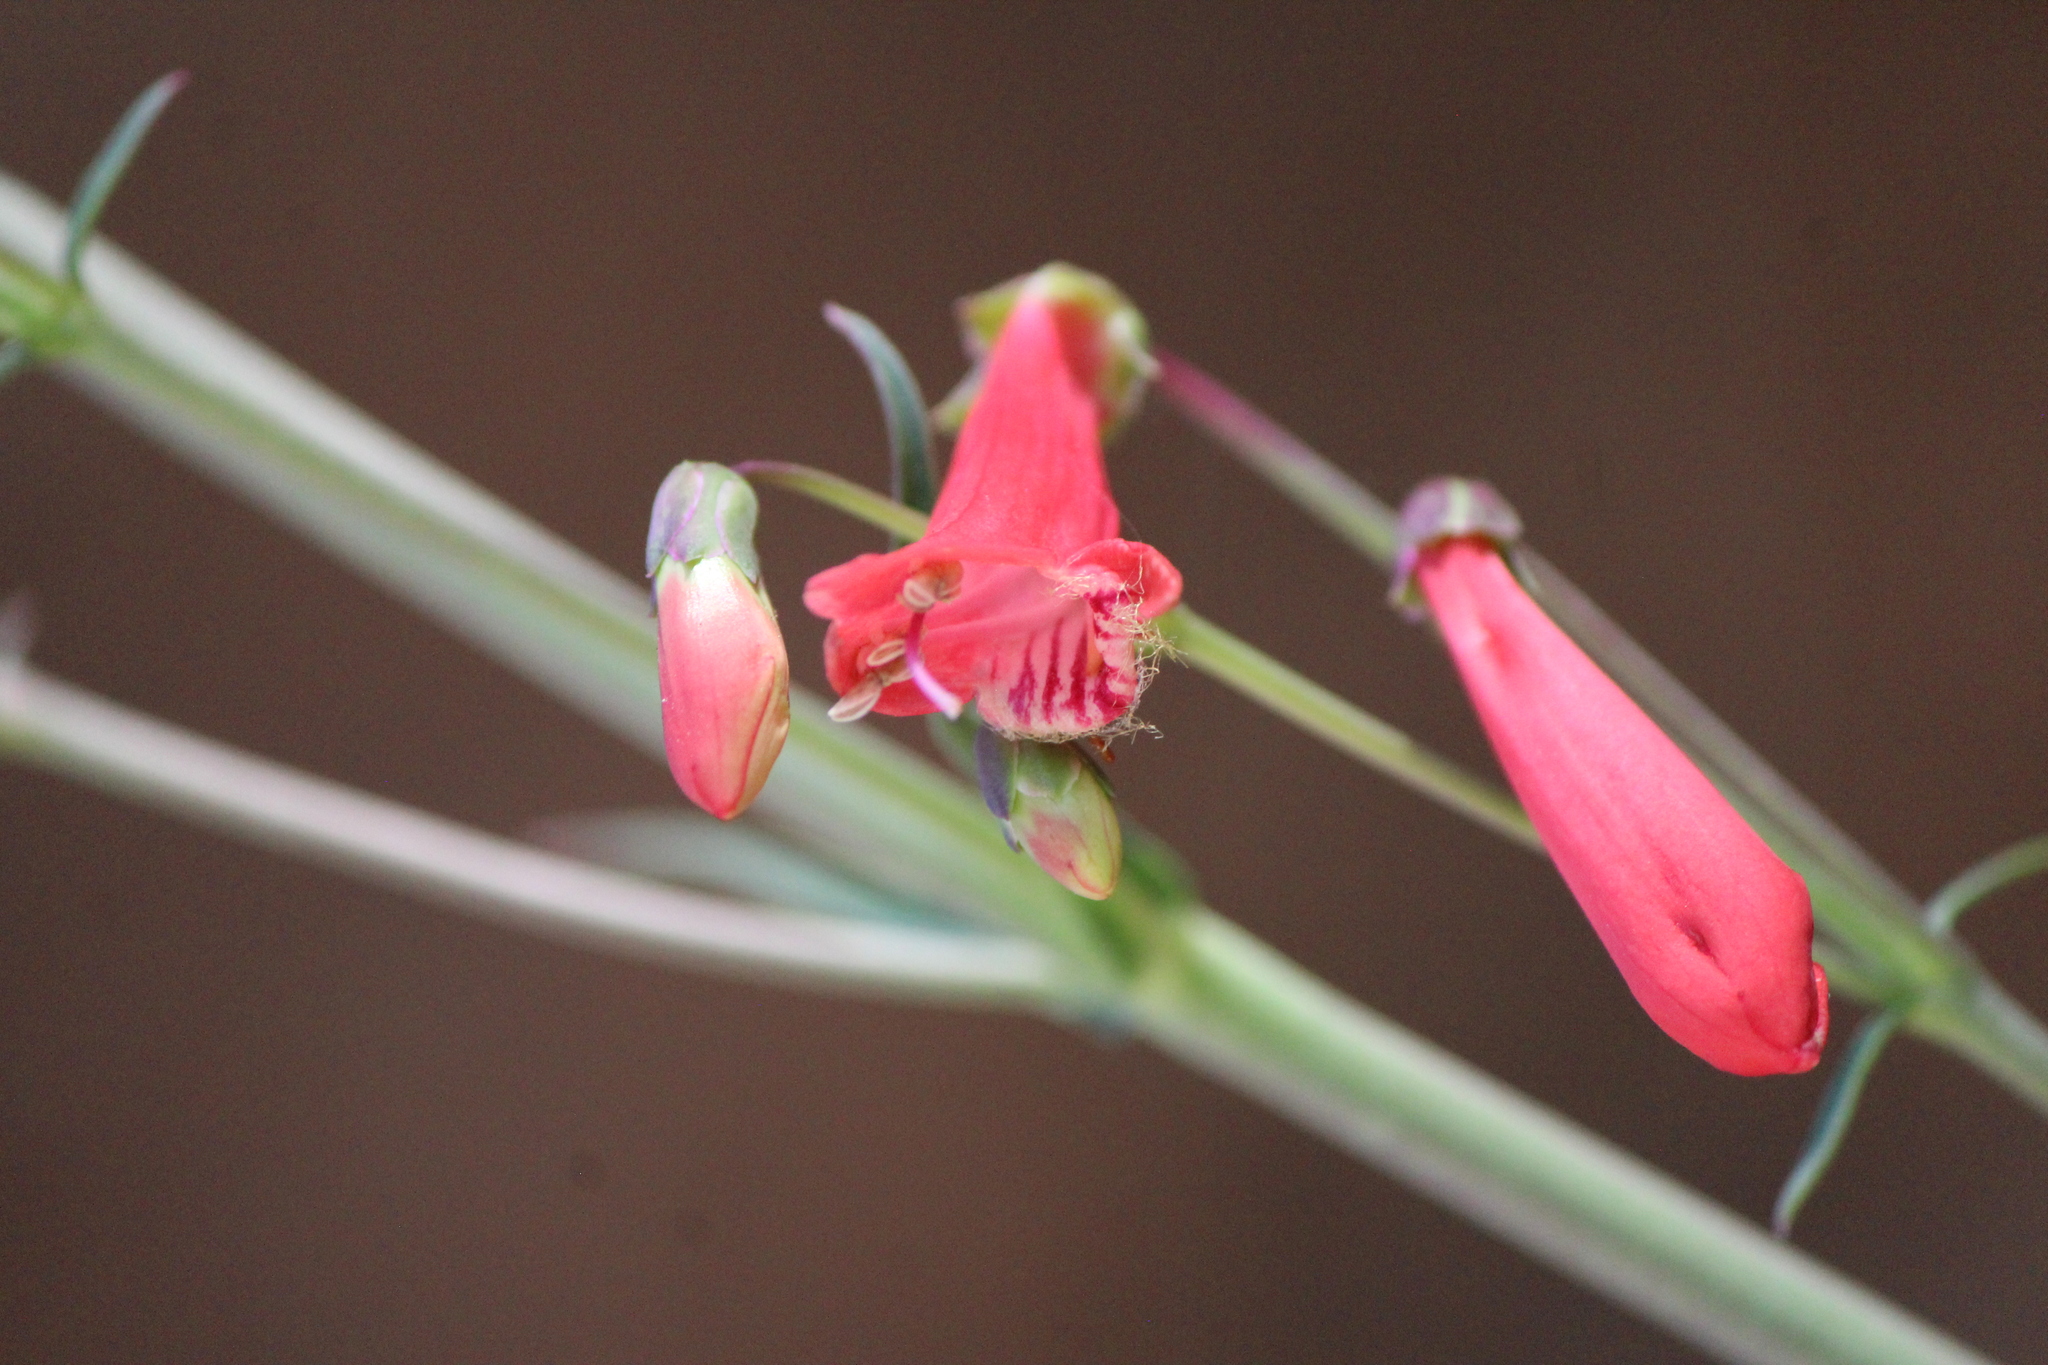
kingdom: Plantae
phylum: Tracheophyta
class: Magnoliopsida
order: Lamiales
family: Plantaginaceae
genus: Penstemon
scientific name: Penstemon barbatus
